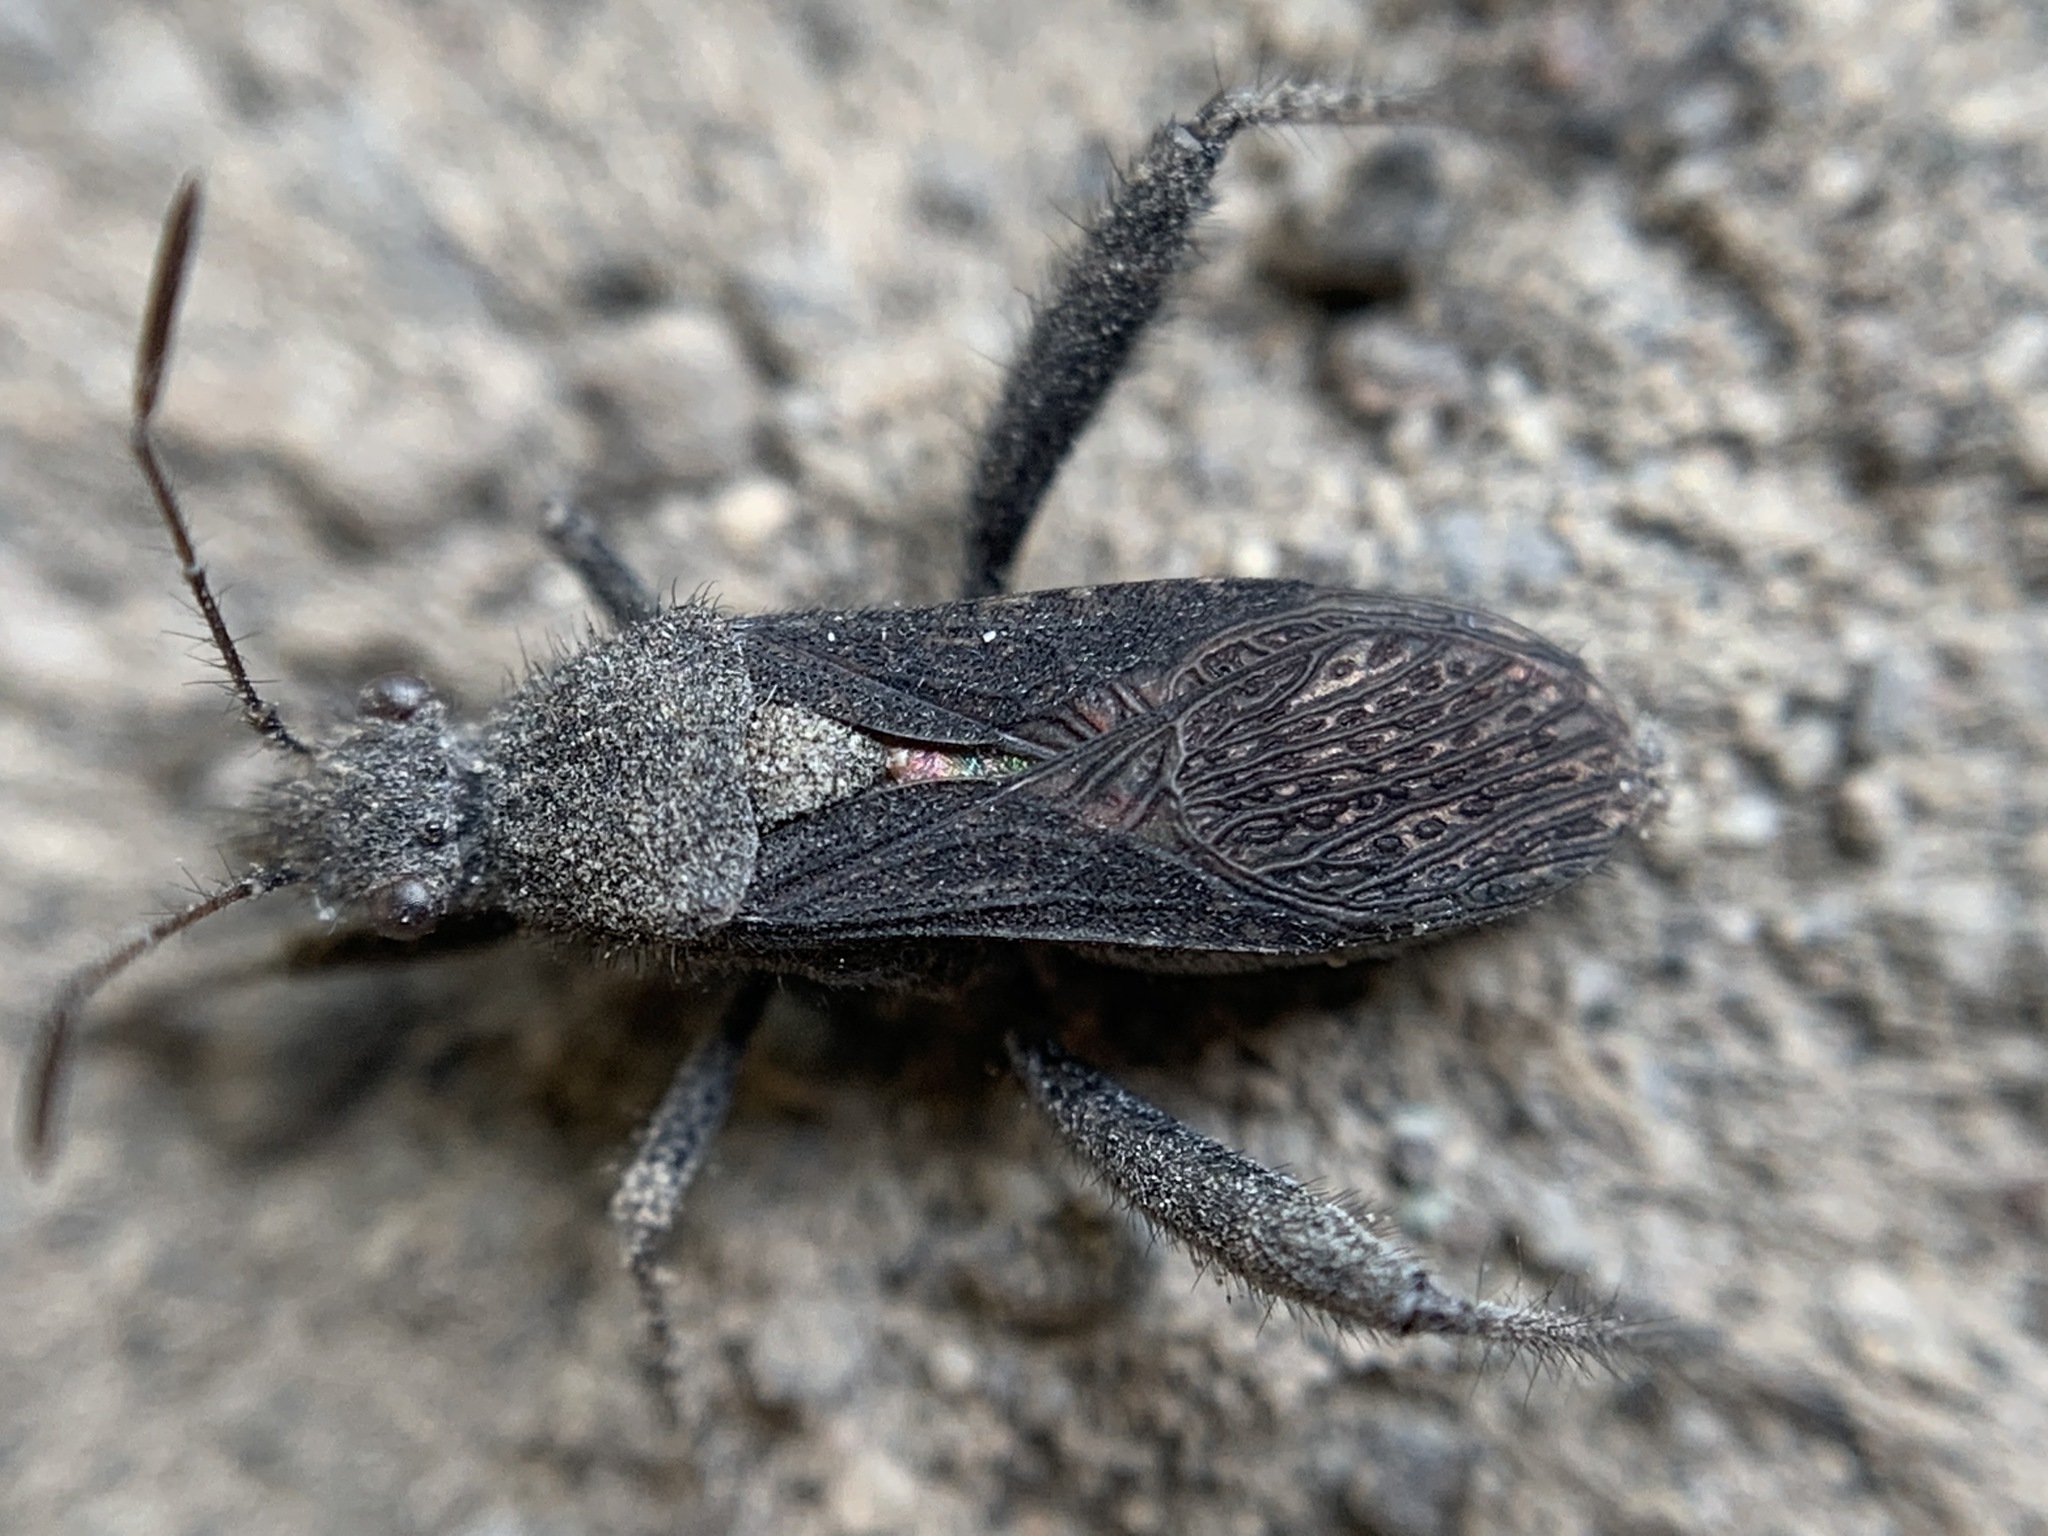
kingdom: Animalia
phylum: Arthropoda
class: Insecta
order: Hemiptera
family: Alydidae
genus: Alydus
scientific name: Alydus eurinus
